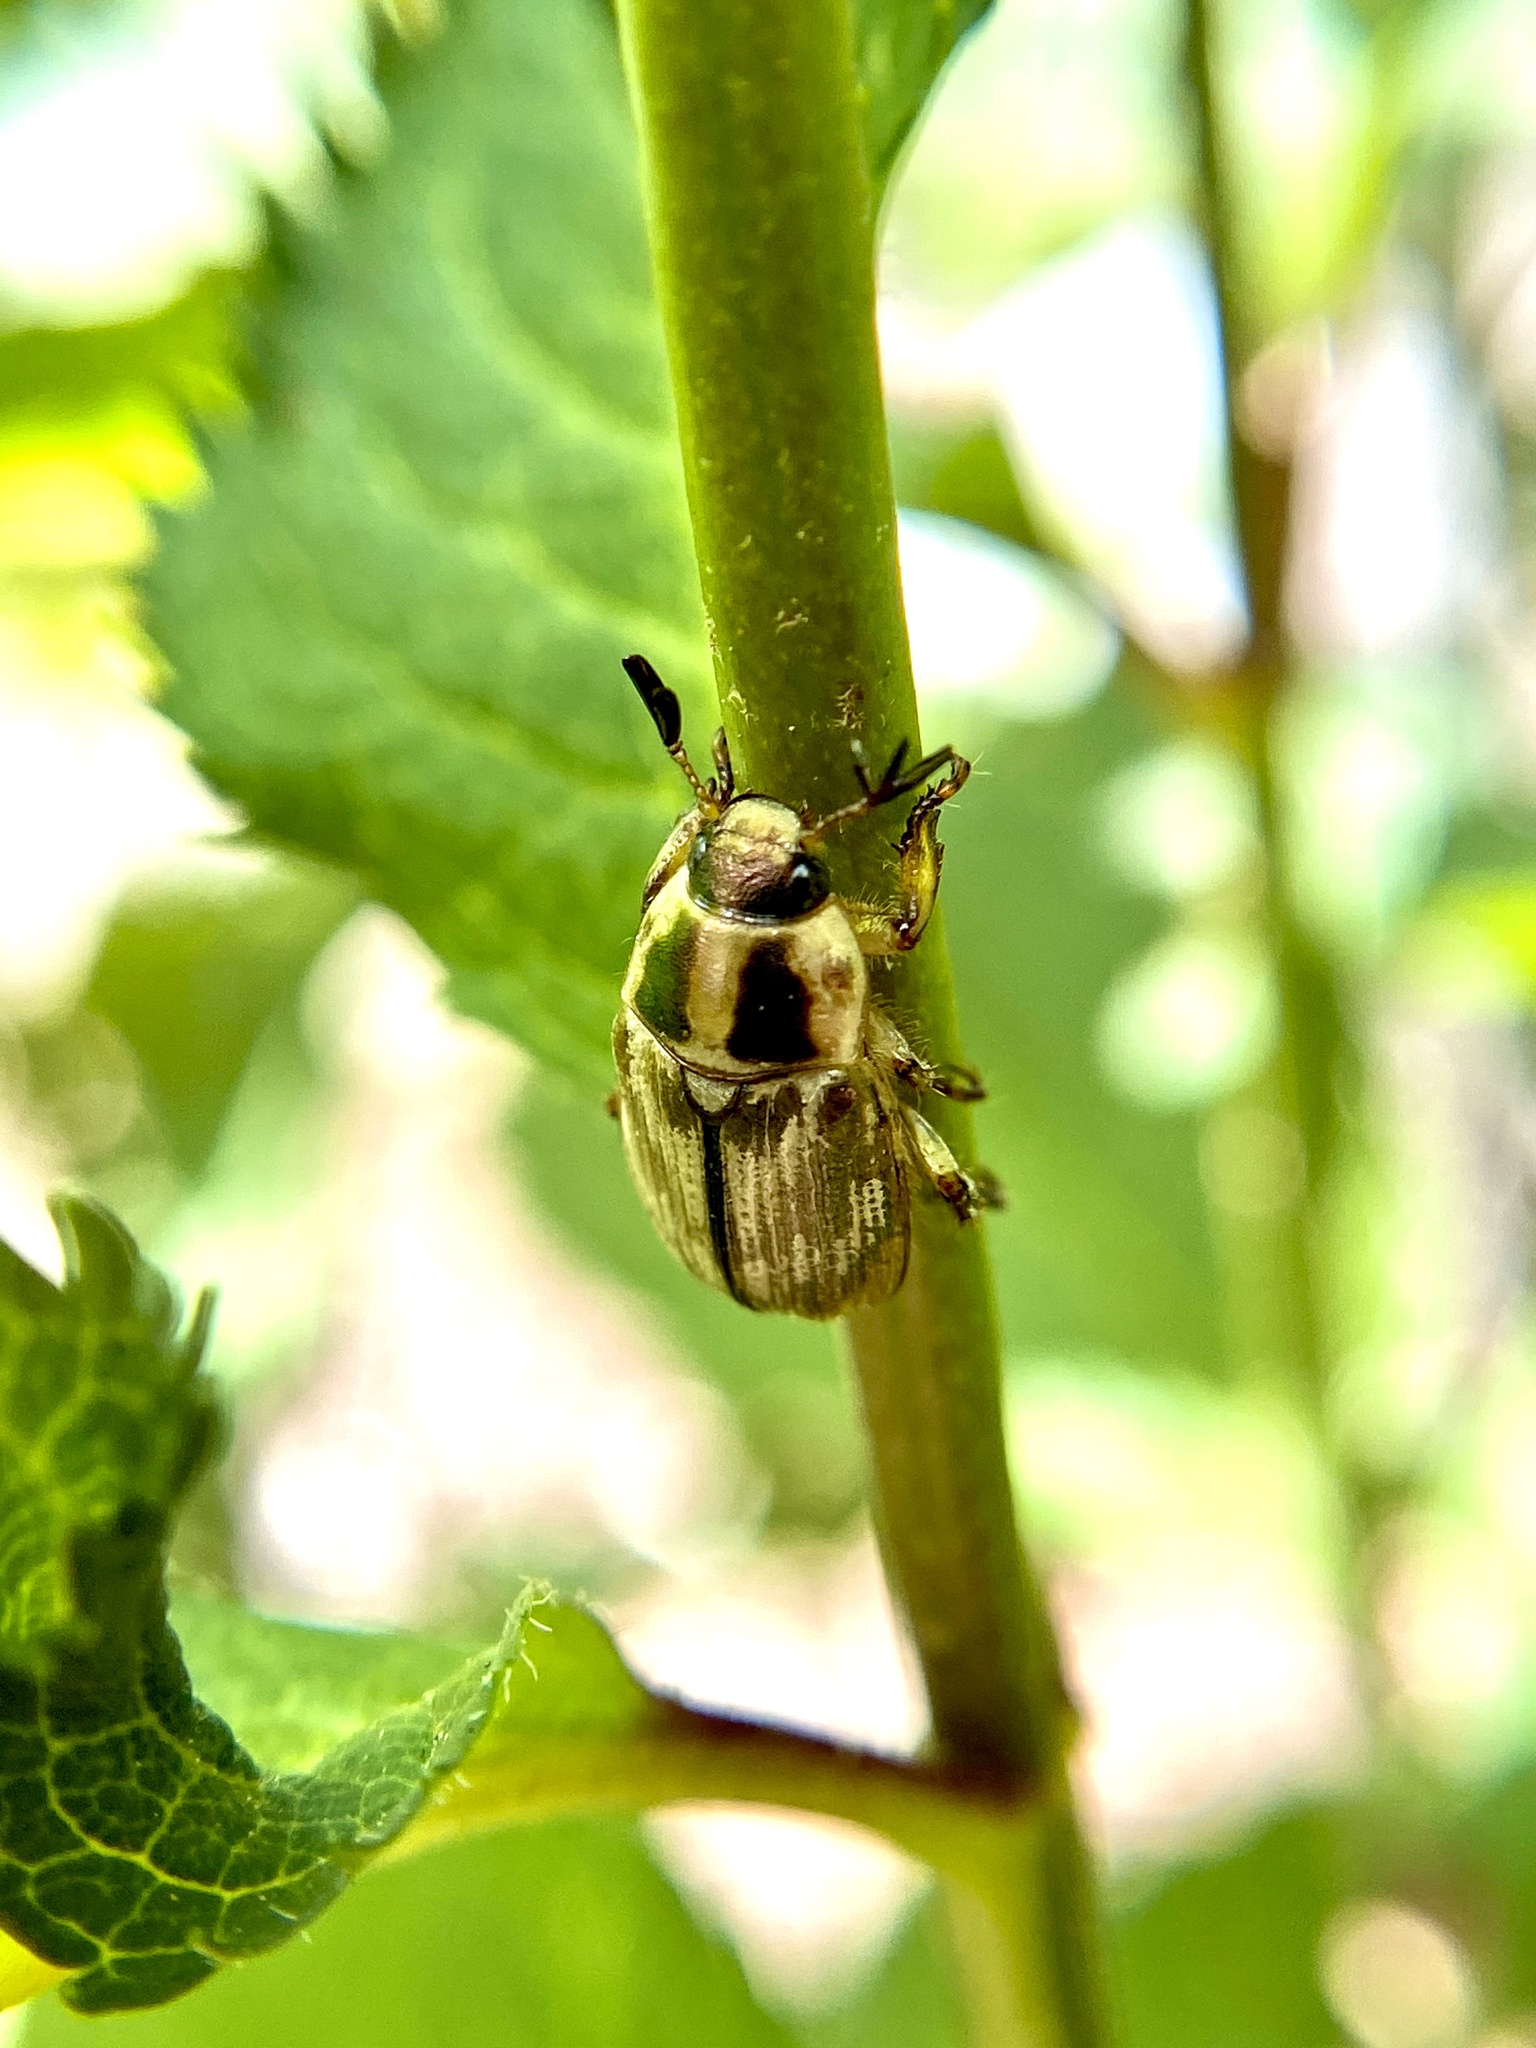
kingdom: Animalia
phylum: Arthropoda
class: Insecta
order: Coleoptera
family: Scarabaeidae
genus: Exomala
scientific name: Exomala orientalis
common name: Oriental beetle
